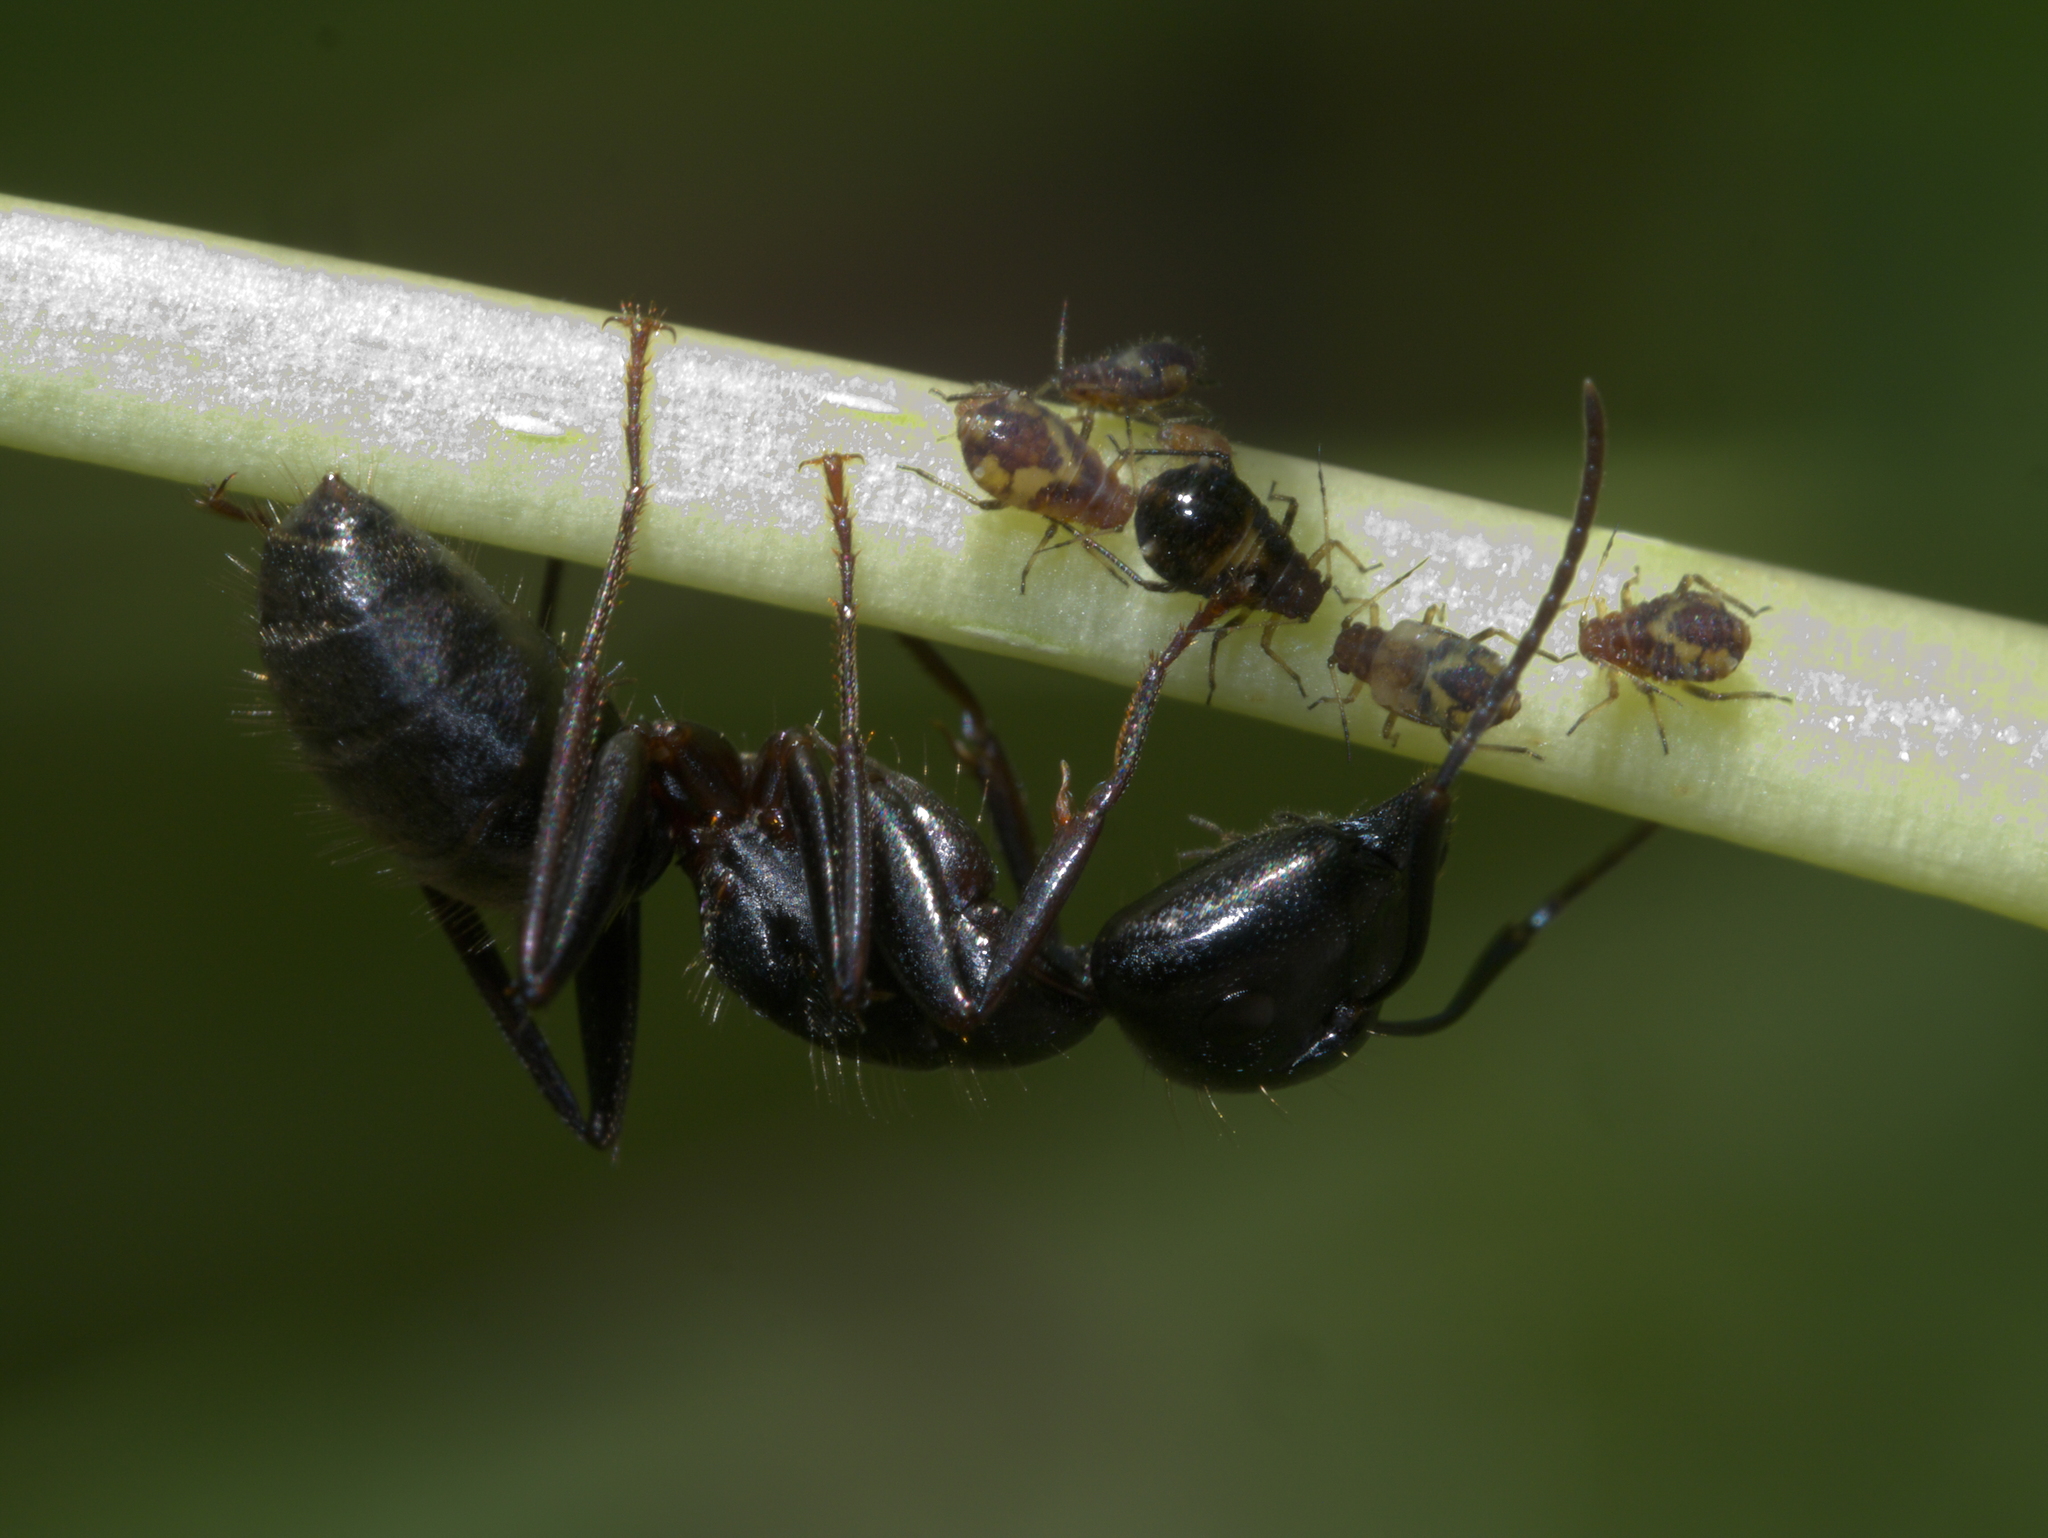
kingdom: Animalia
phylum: Arthropoda
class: Insecta
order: Hymenoptera
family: Formicidae
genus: Camponotus
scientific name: Camponotus pennsylvanicus
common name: Black carpenter ant
